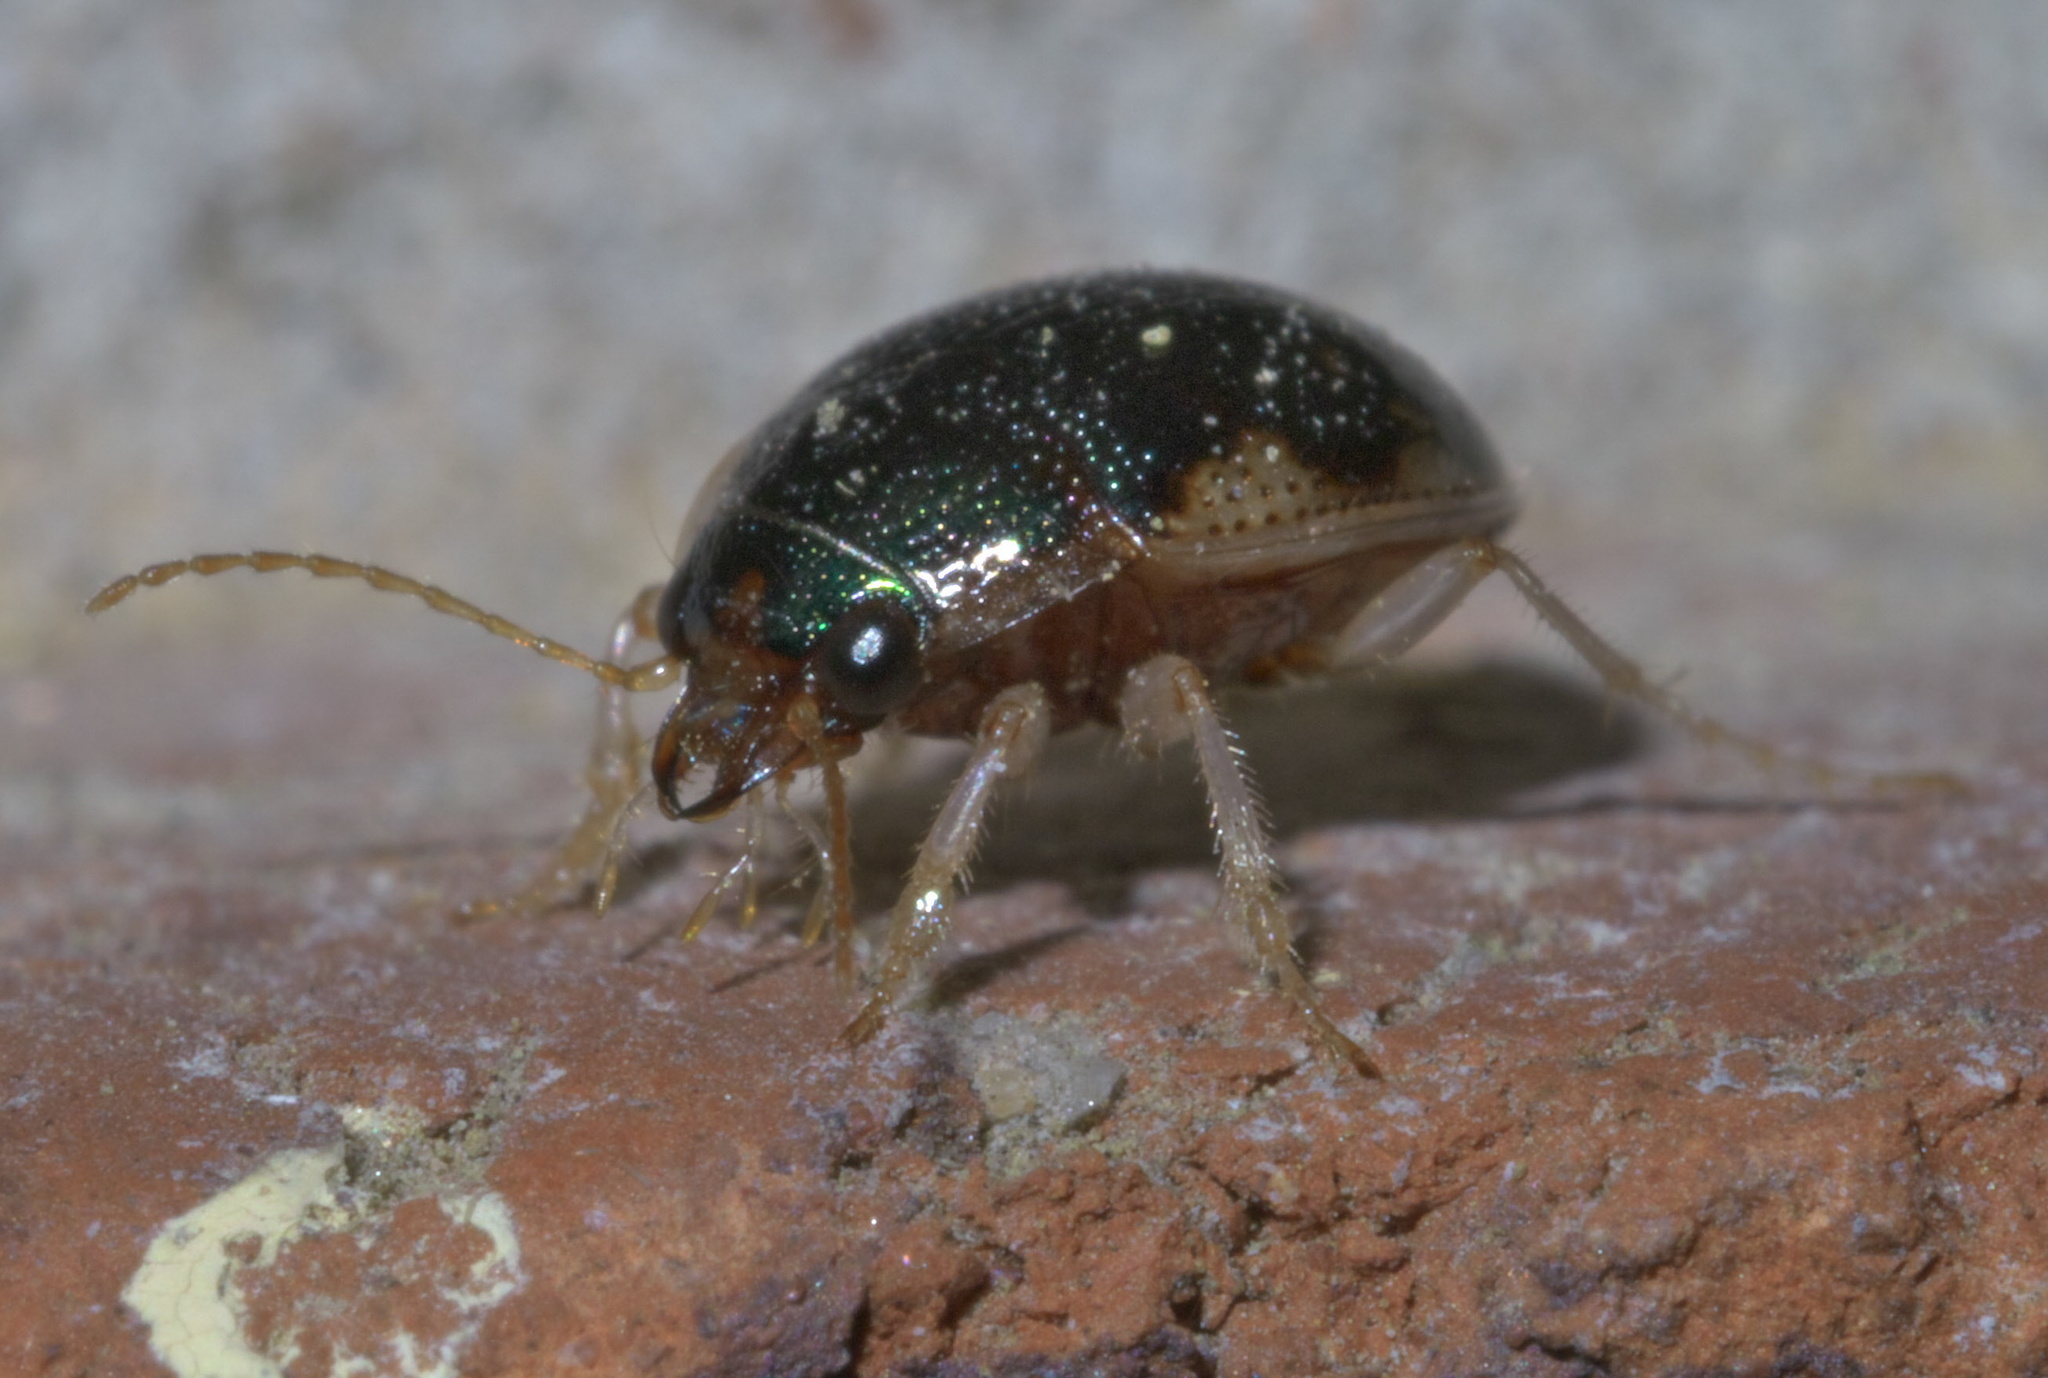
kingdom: Animalia
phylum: Arthropoda
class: Insecta
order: Coleoptera
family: Carabidae
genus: Omophron
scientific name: Omophron nitidum
